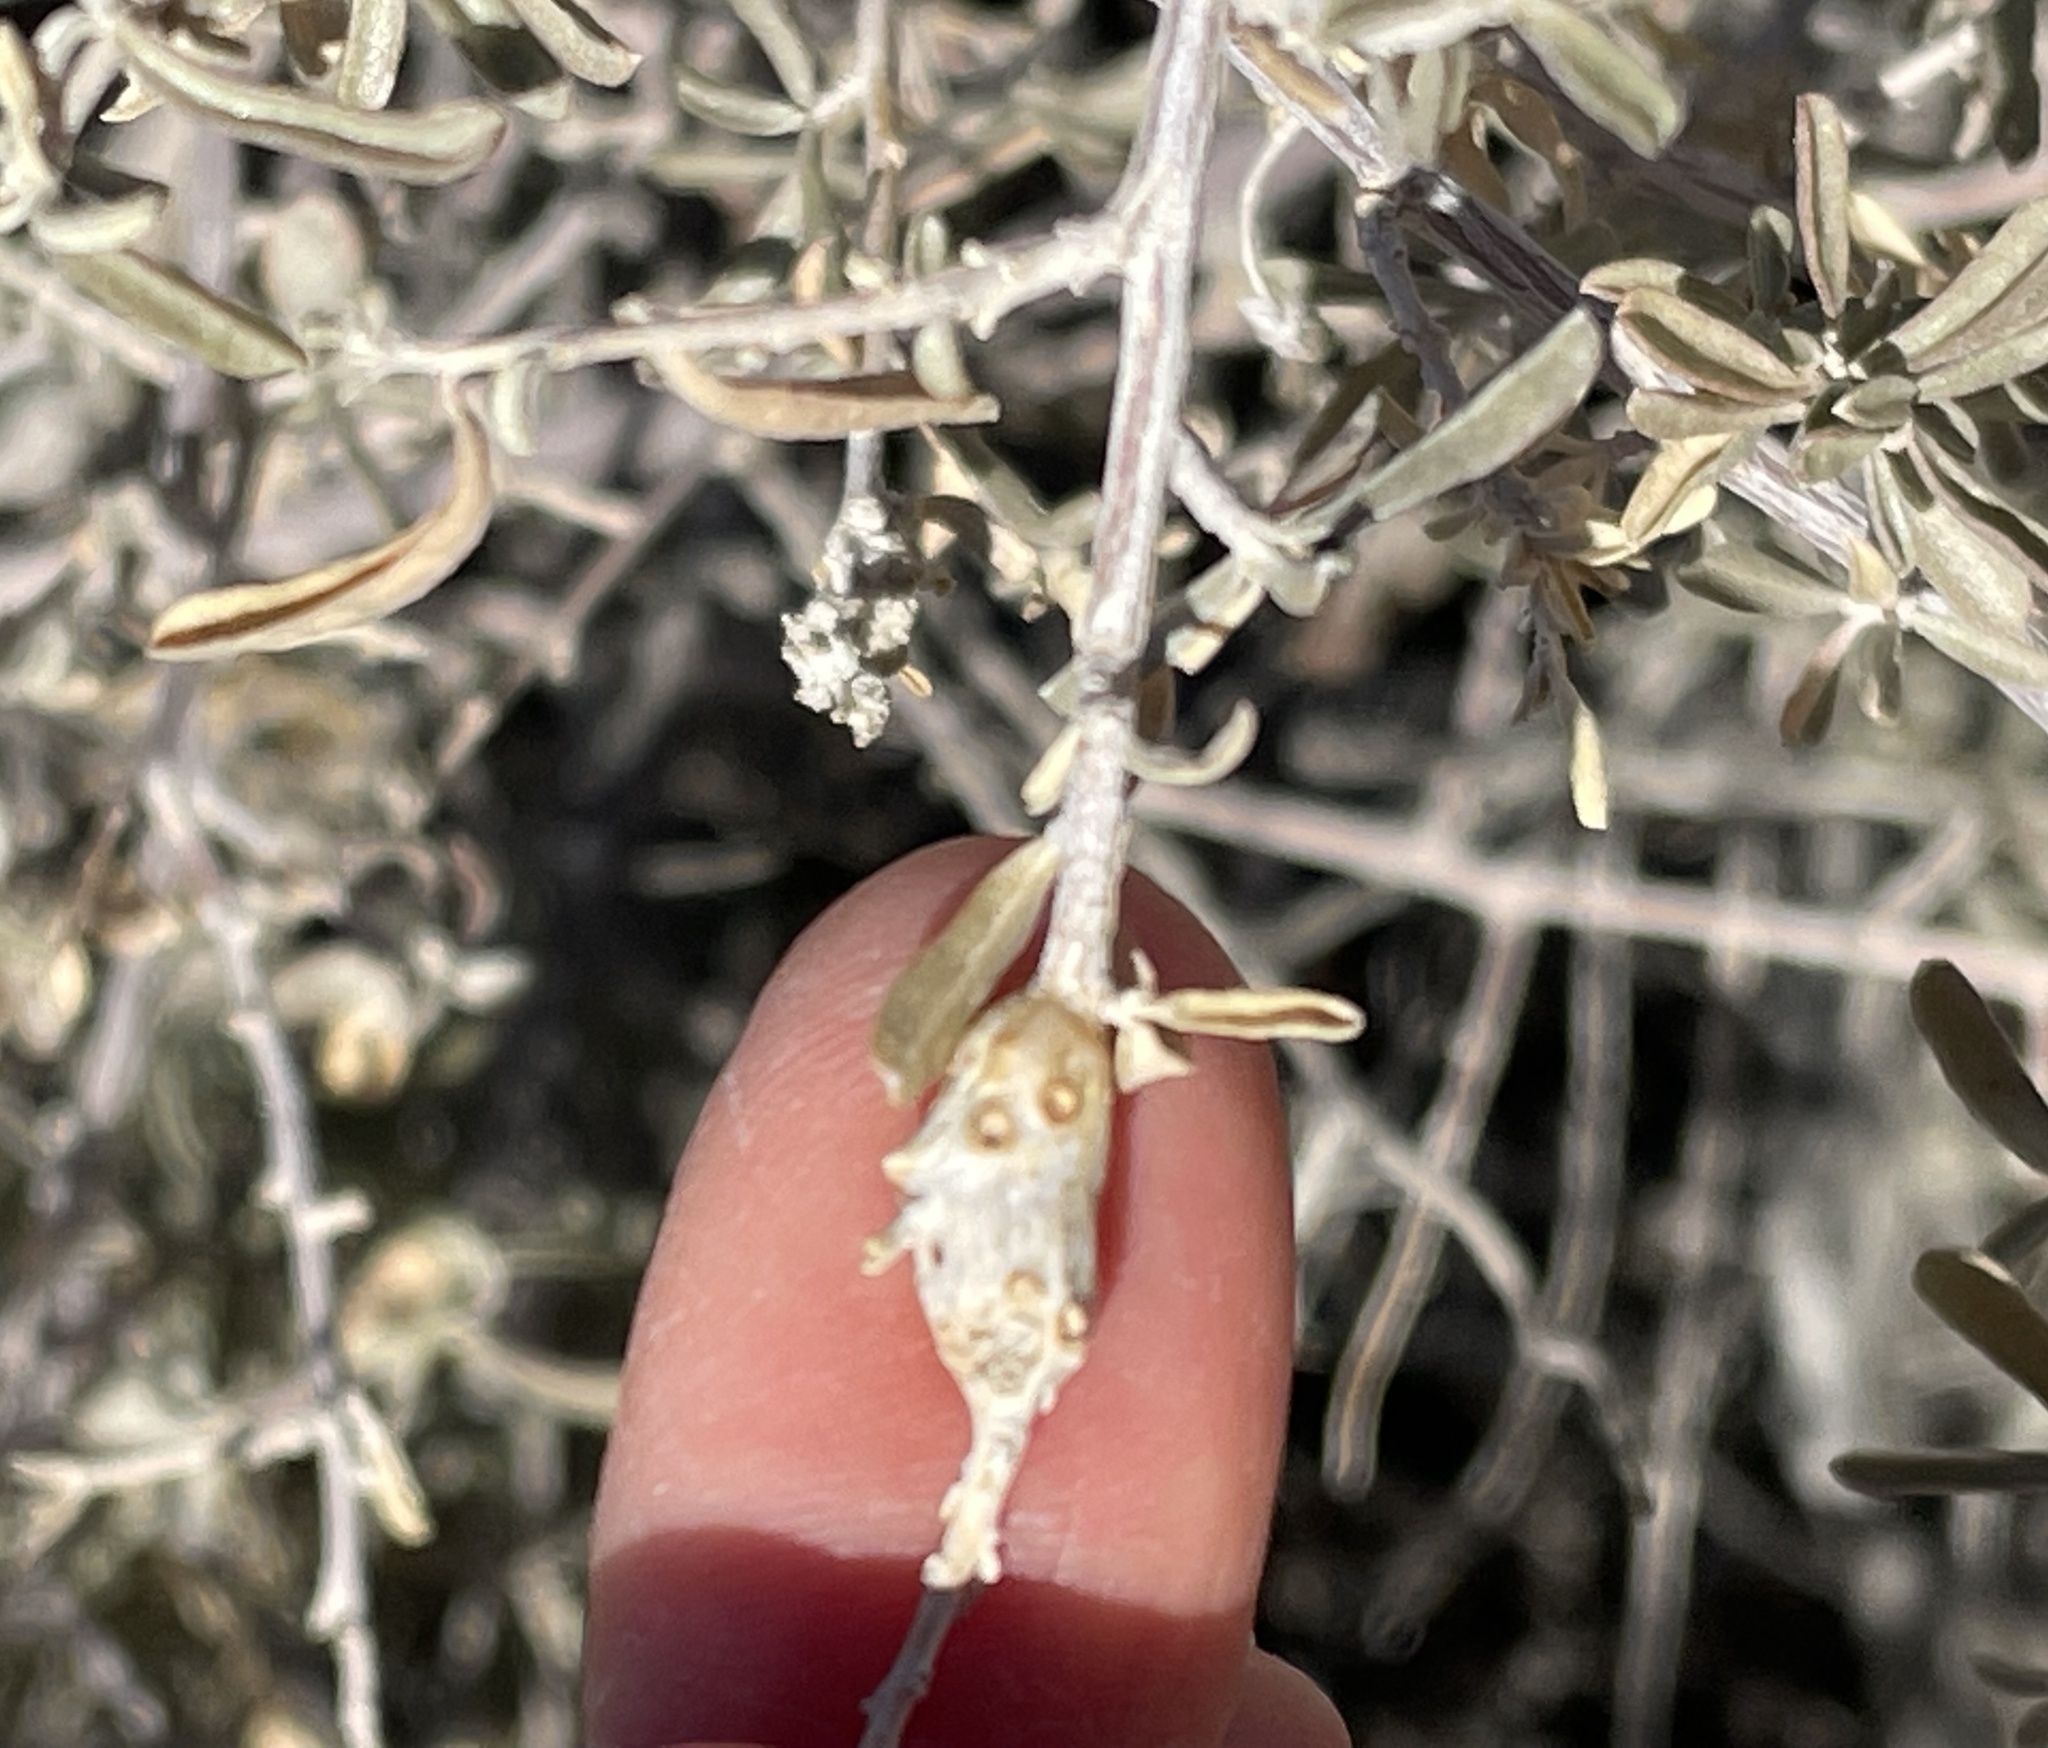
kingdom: Animalia
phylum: Arthropoda
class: Insecta
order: Diptera
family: Cecidomyiidae
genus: Asphondylia
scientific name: Asphondylia atriplicis
